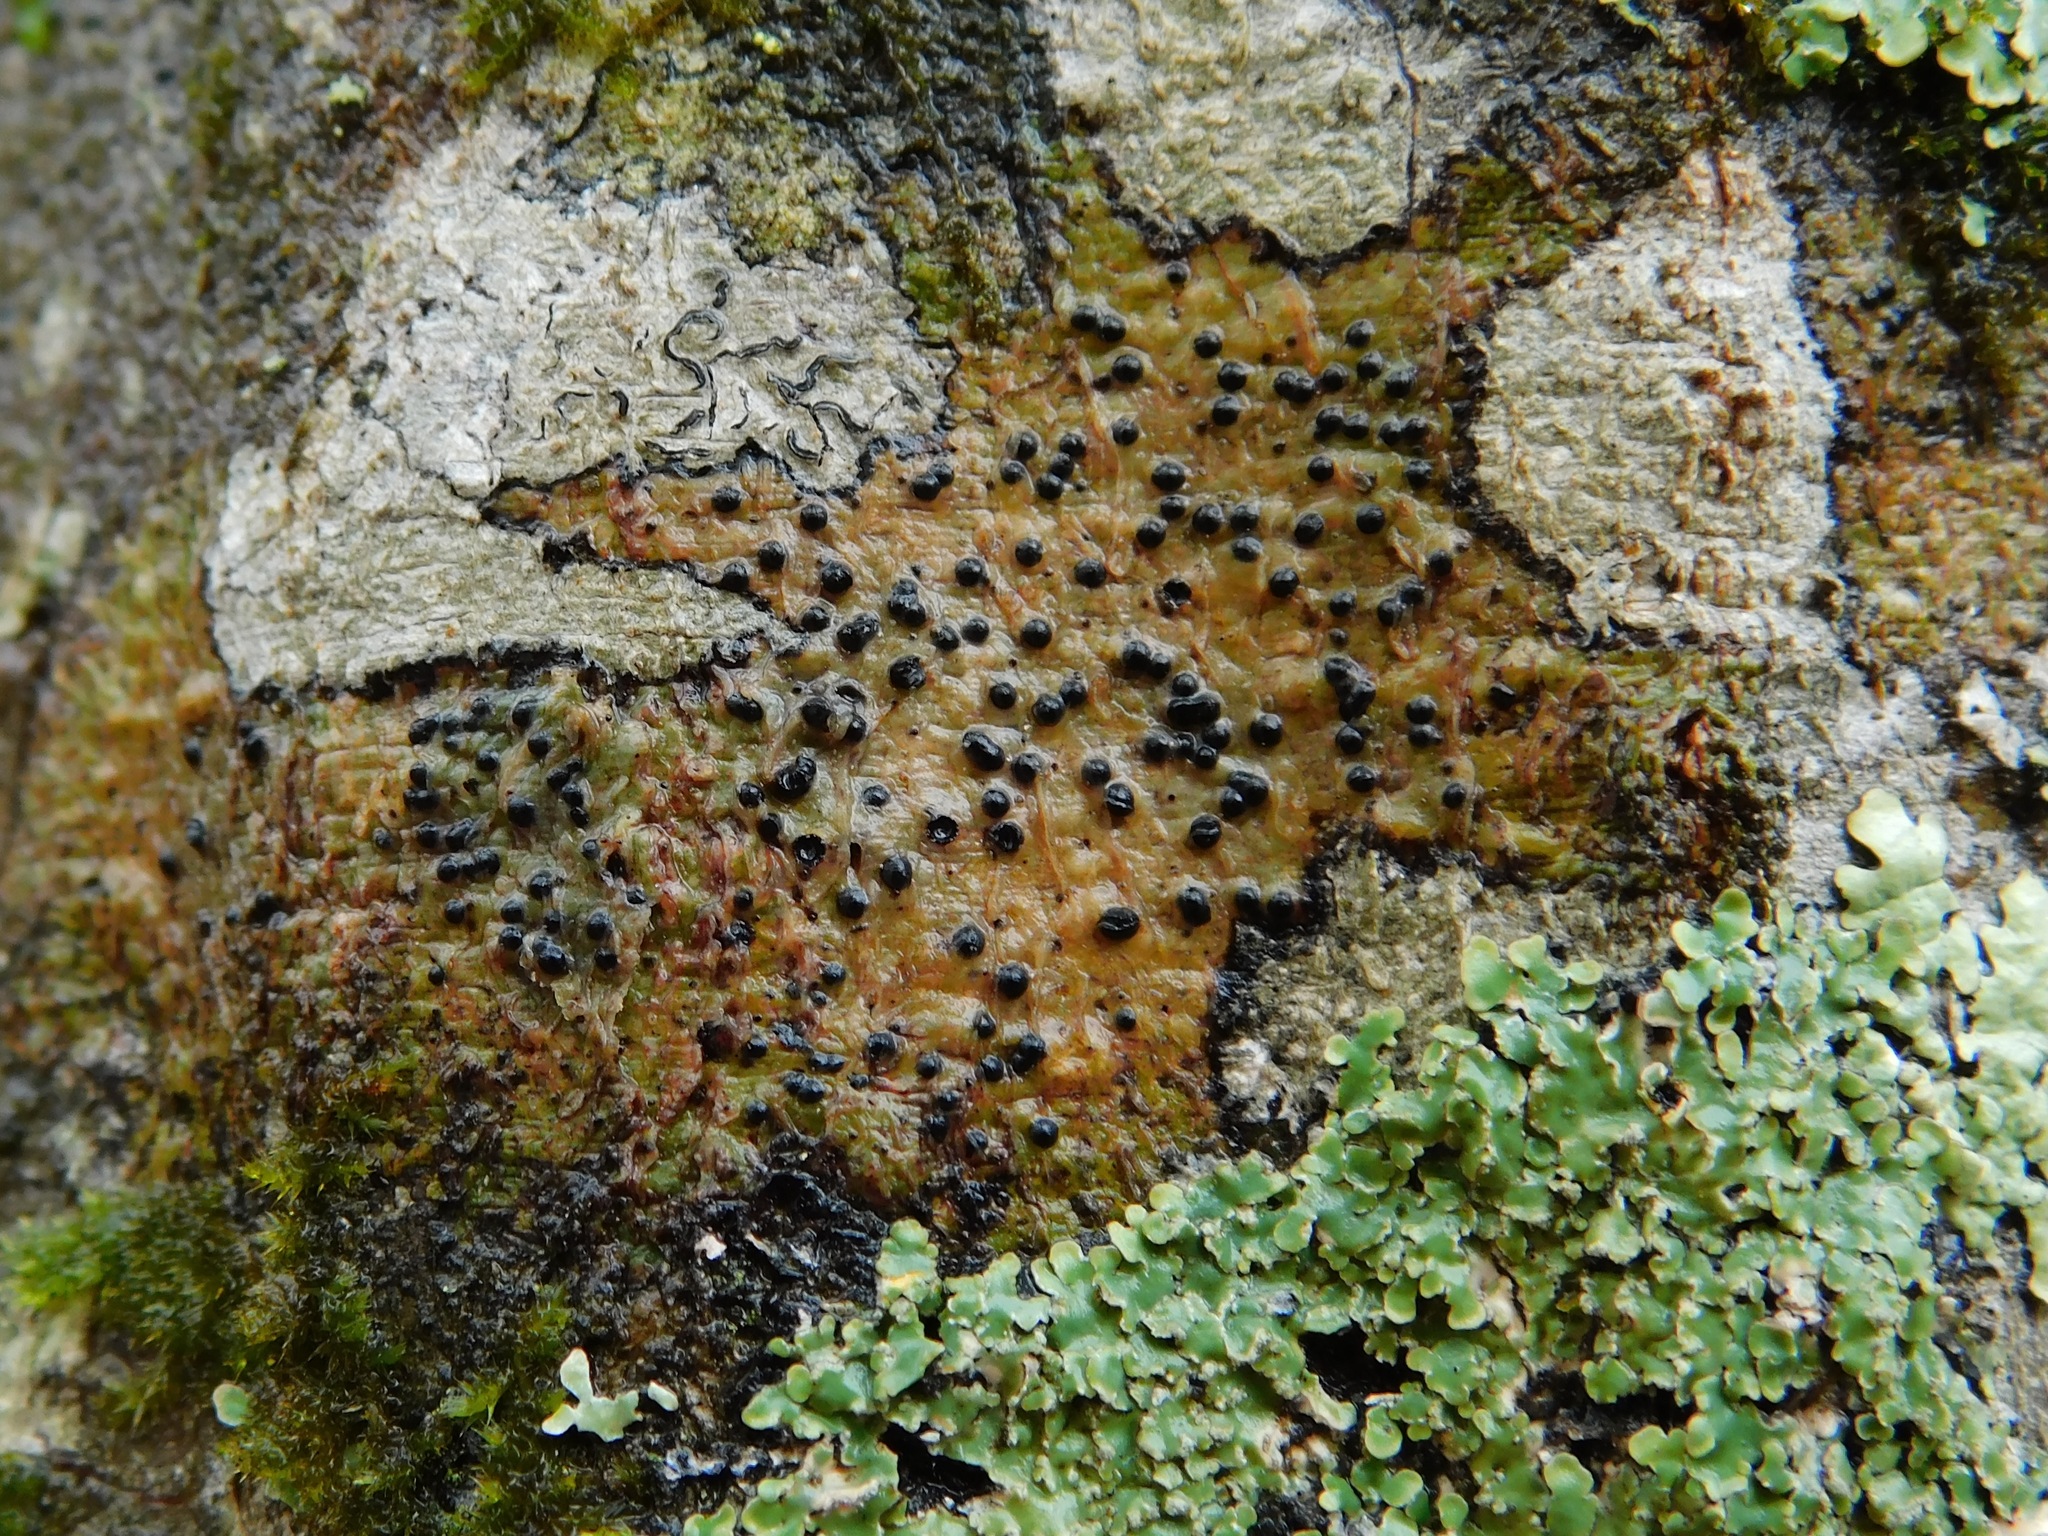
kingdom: Fungi
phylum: Ascomycota
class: Eurotiomycetes
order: Pyrenulales
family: Pyrenulaceae
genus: Pyrenula
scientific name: Pyrenula fetivica
